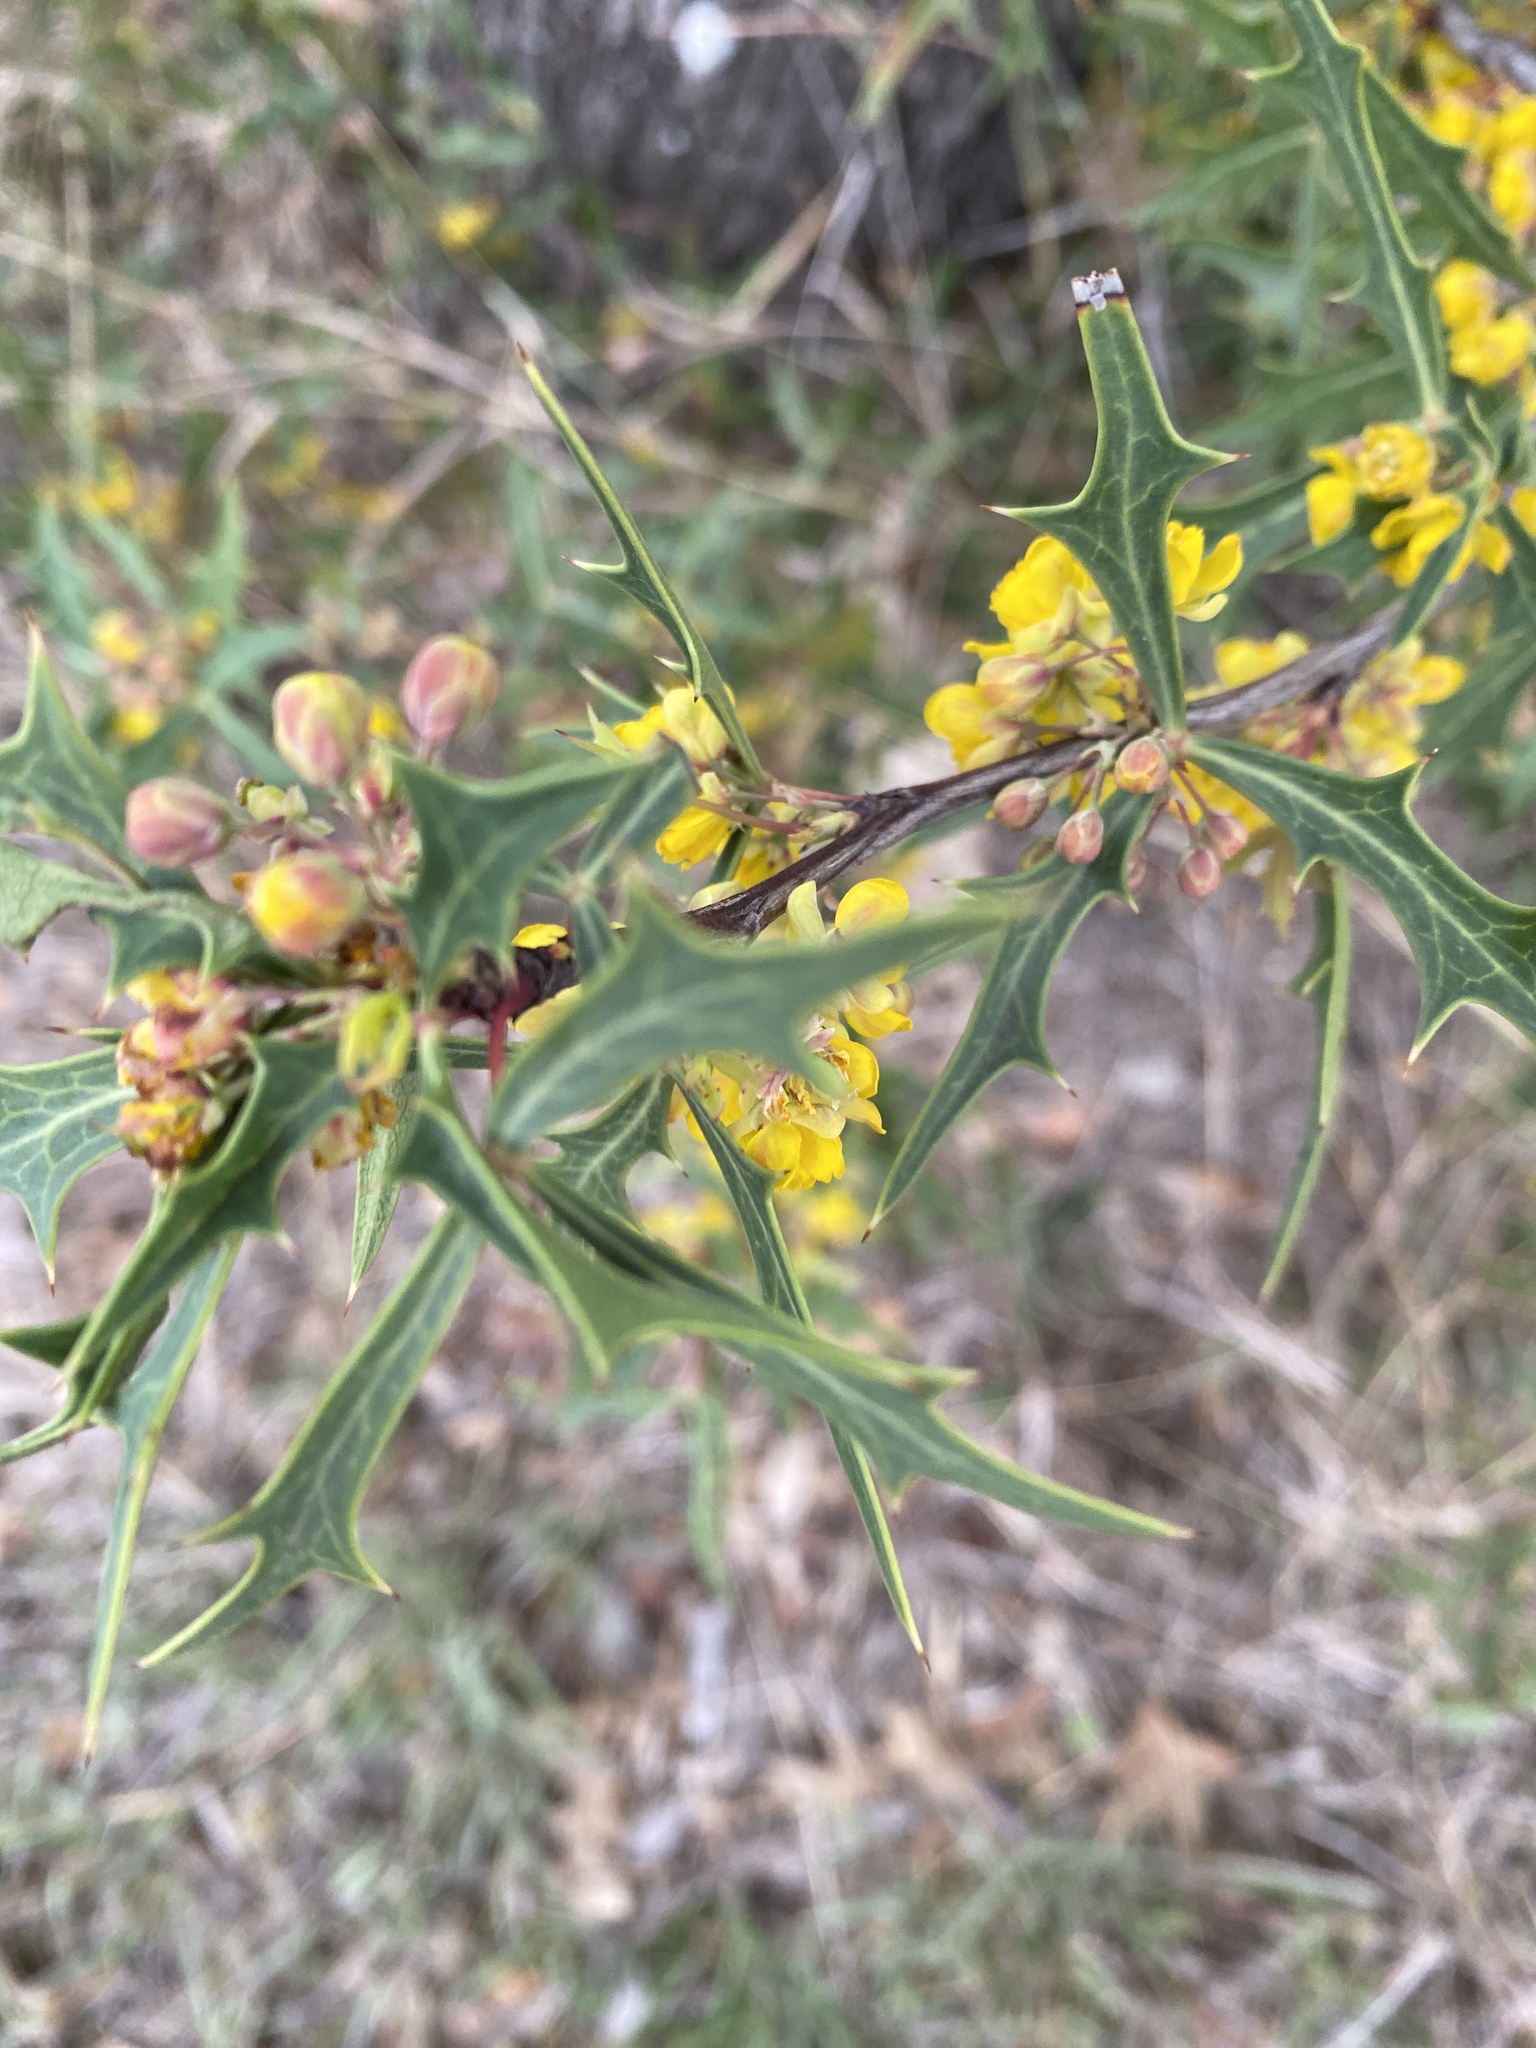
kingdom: Plantae
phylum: Tracheophyta
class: Magnoliopsida
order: Ranunculales
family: Berberidaceae
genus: Alloberberis
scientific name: Alloberberis trifoliolata
